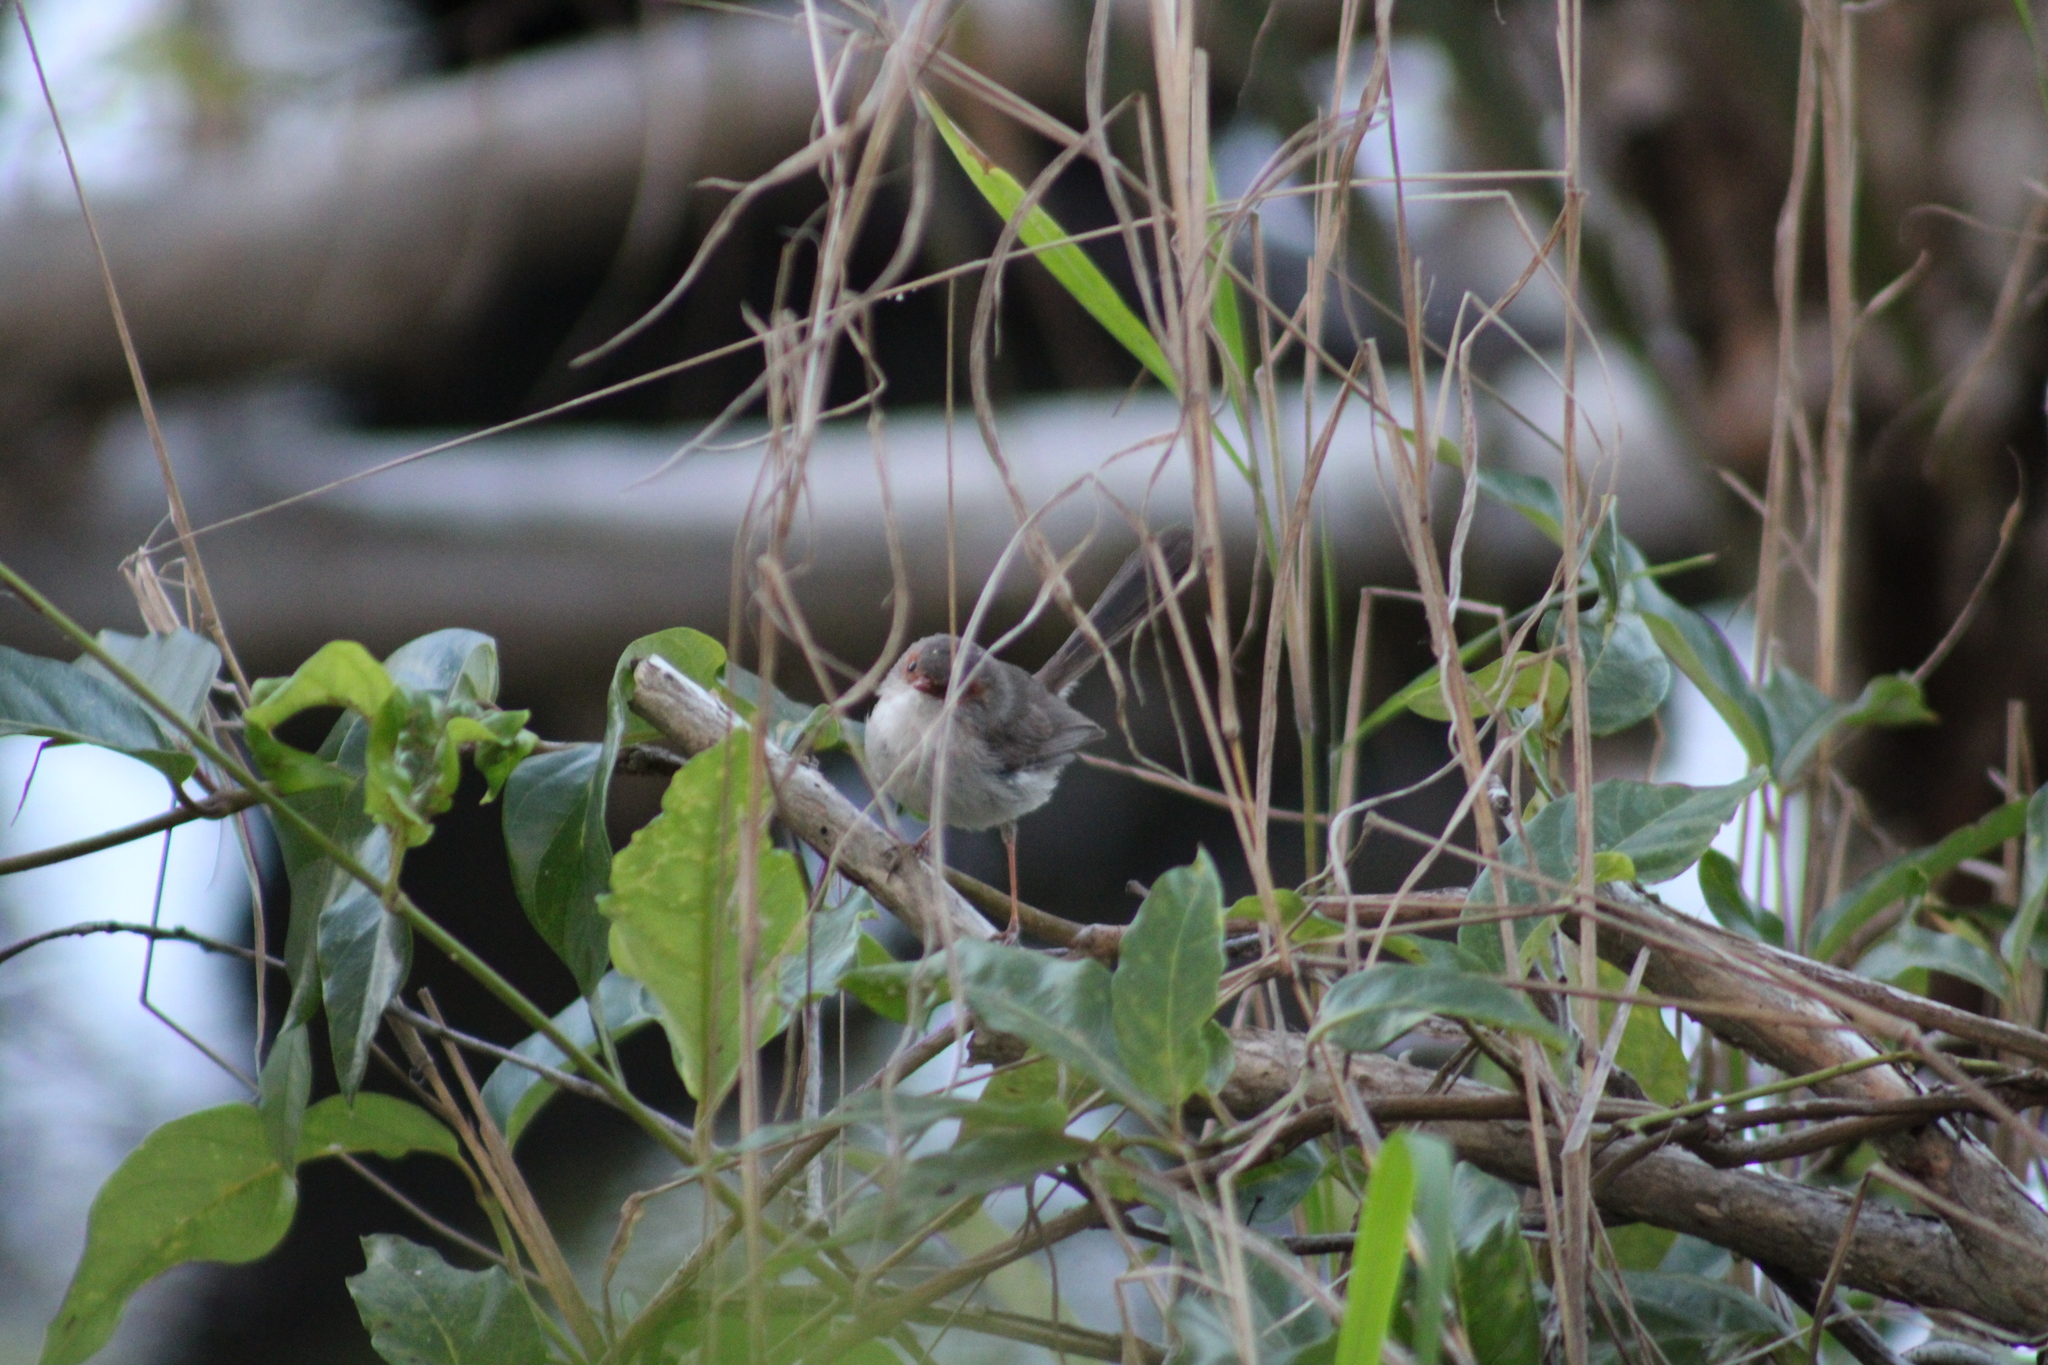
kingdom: Animalia
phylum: Chordata
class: Aves
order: Passeriformes
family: Maluridae
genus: Malurus
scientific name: Malurus lamberti
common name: Variegated fairywren
